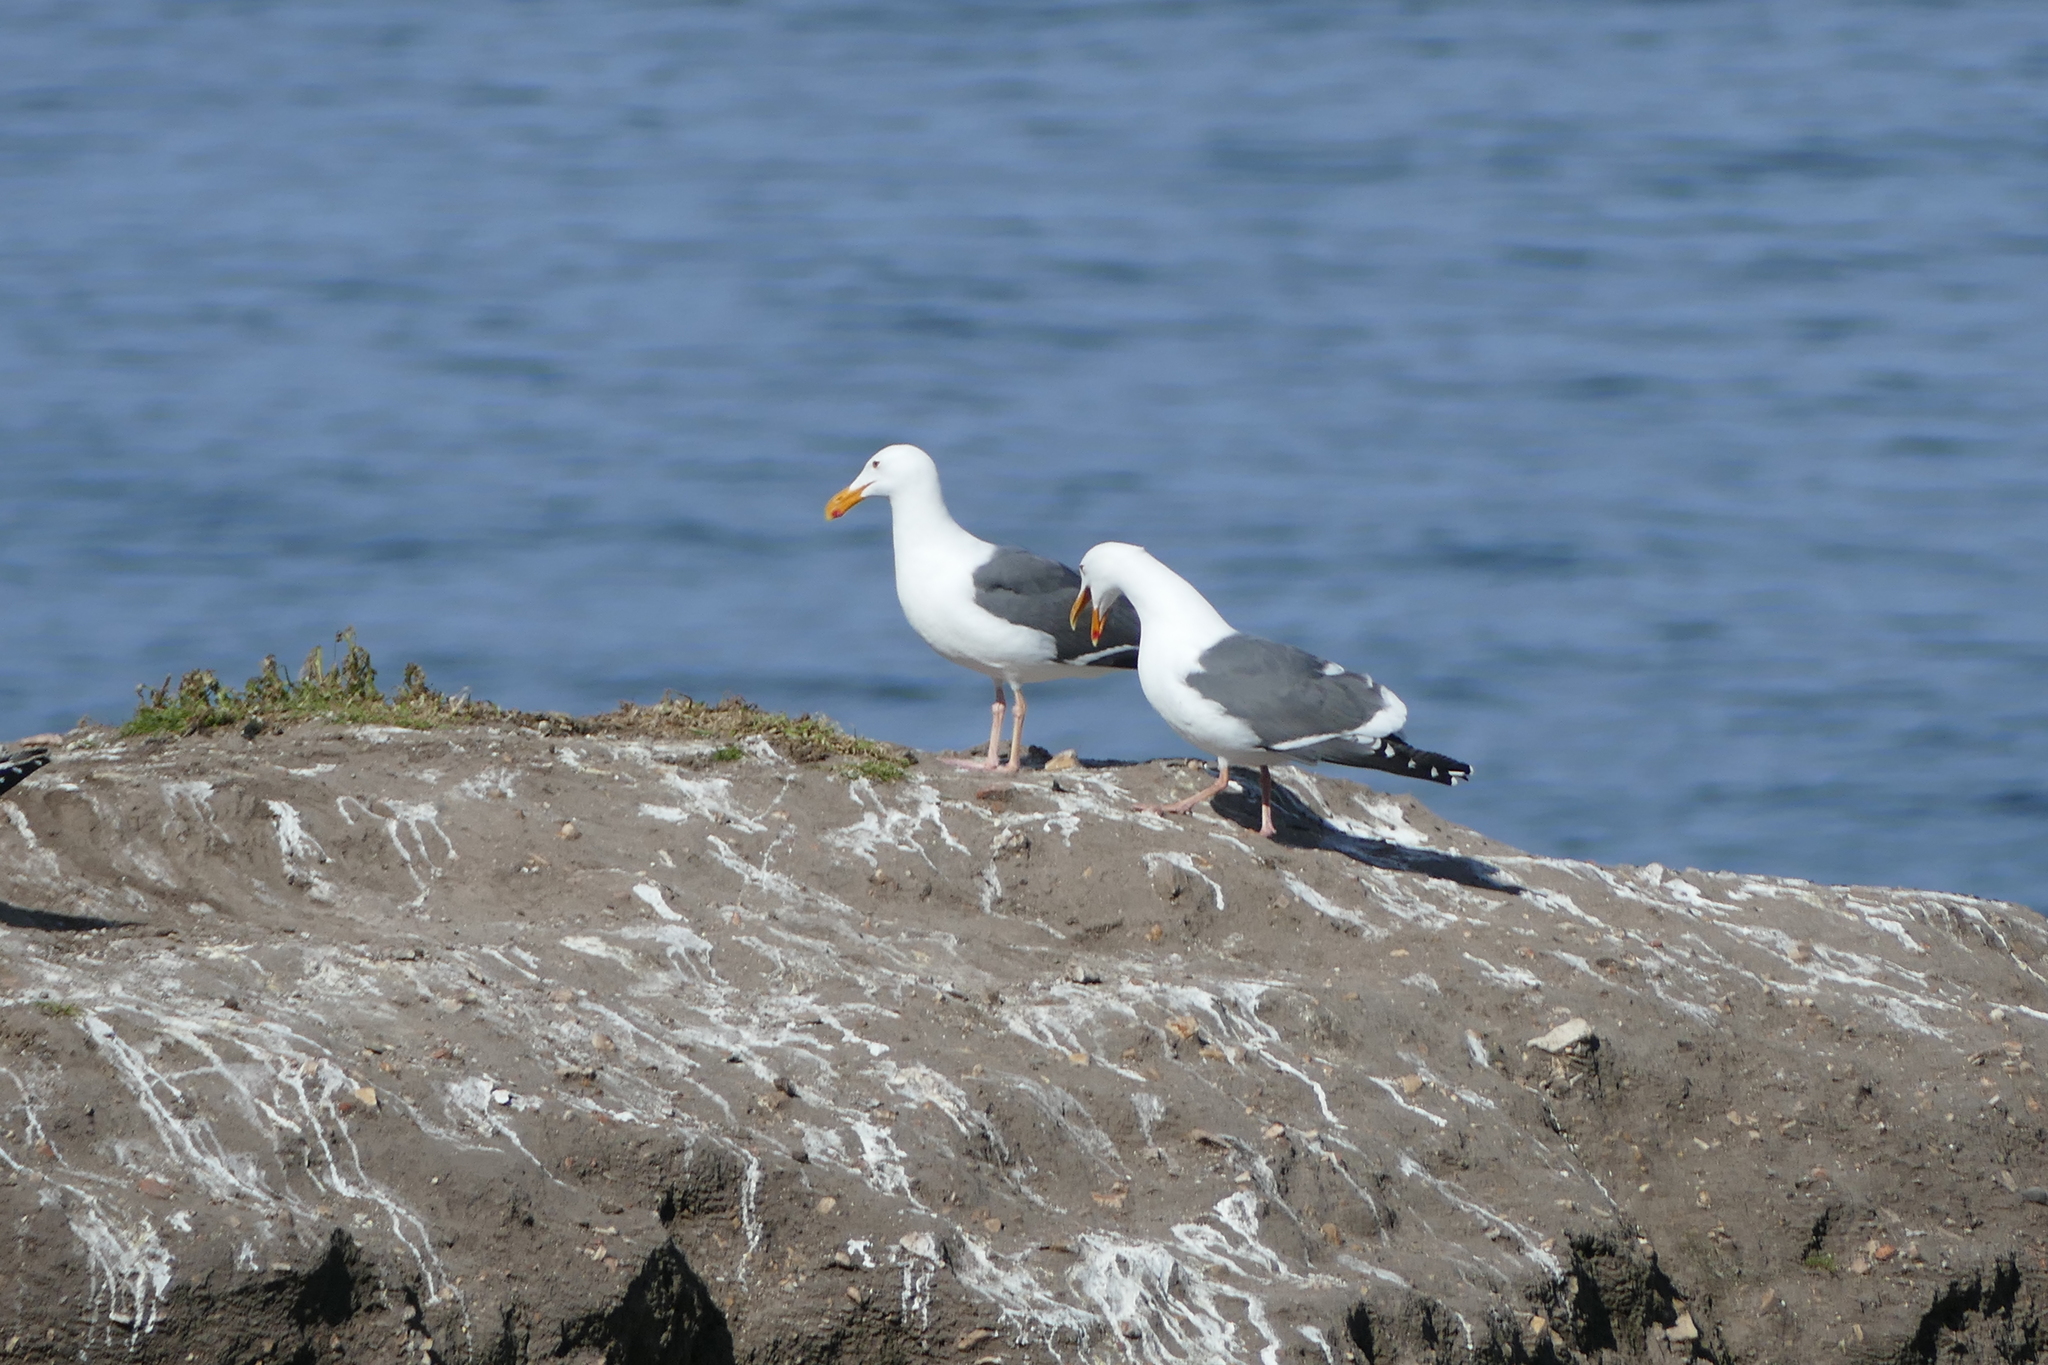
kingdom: Animalia
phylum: Chordata
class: Aves
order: Charadriiformes
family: Laridae
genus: Larus
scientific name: Larus occidentalis
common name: Western gull
